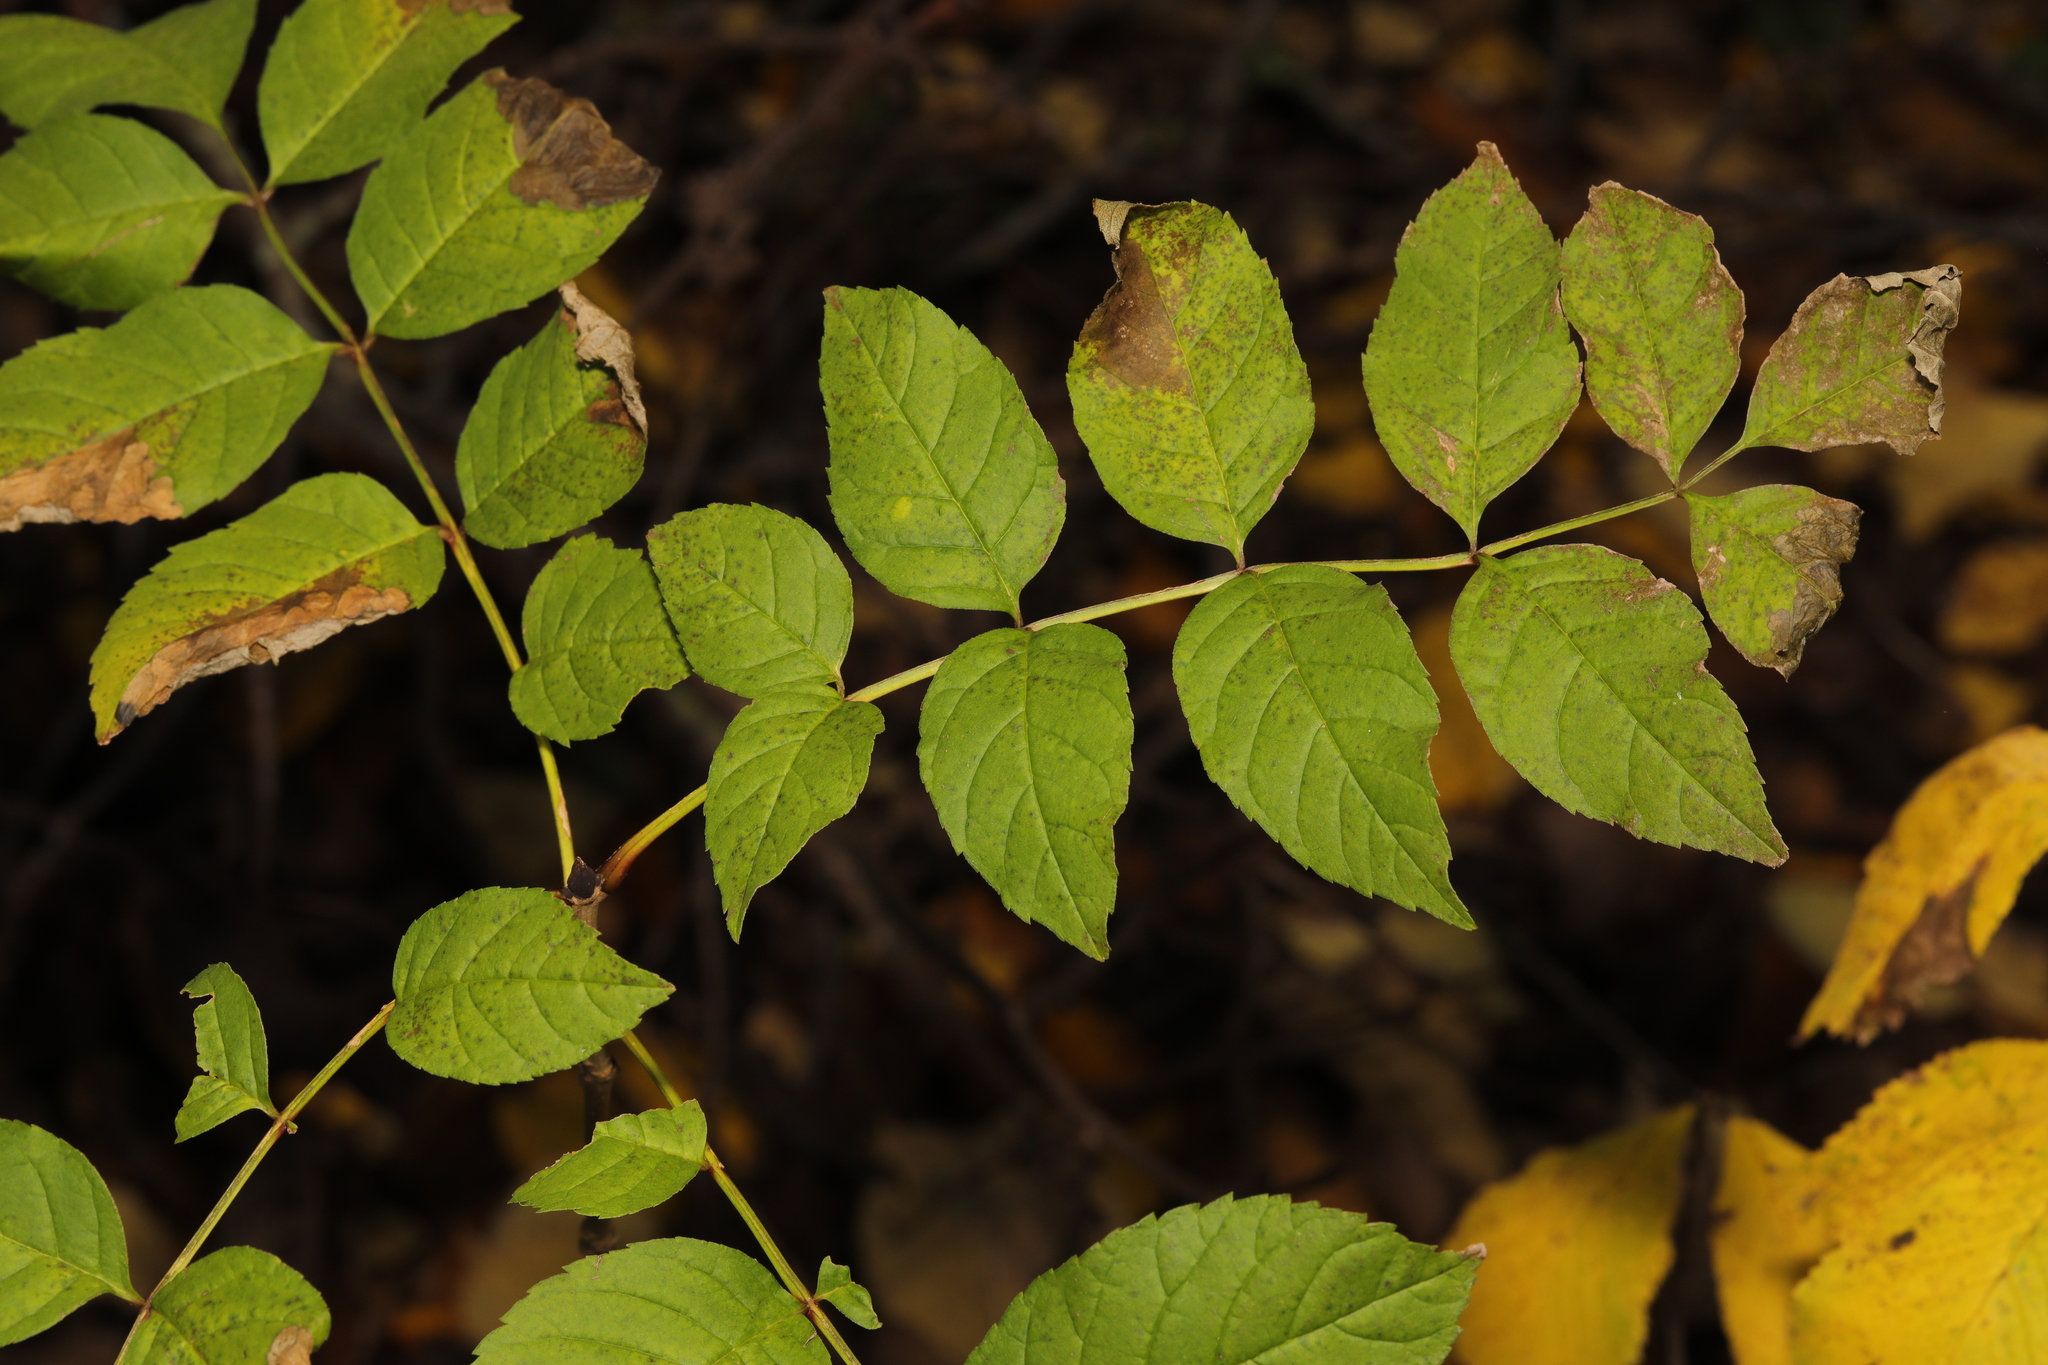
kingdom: Plantae
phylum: Tracheophyta
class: Magnoliopsida
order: Lamiales
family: Oleaceae
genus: Fraxinus
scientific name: Fraxinus excelsior
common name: European ash
